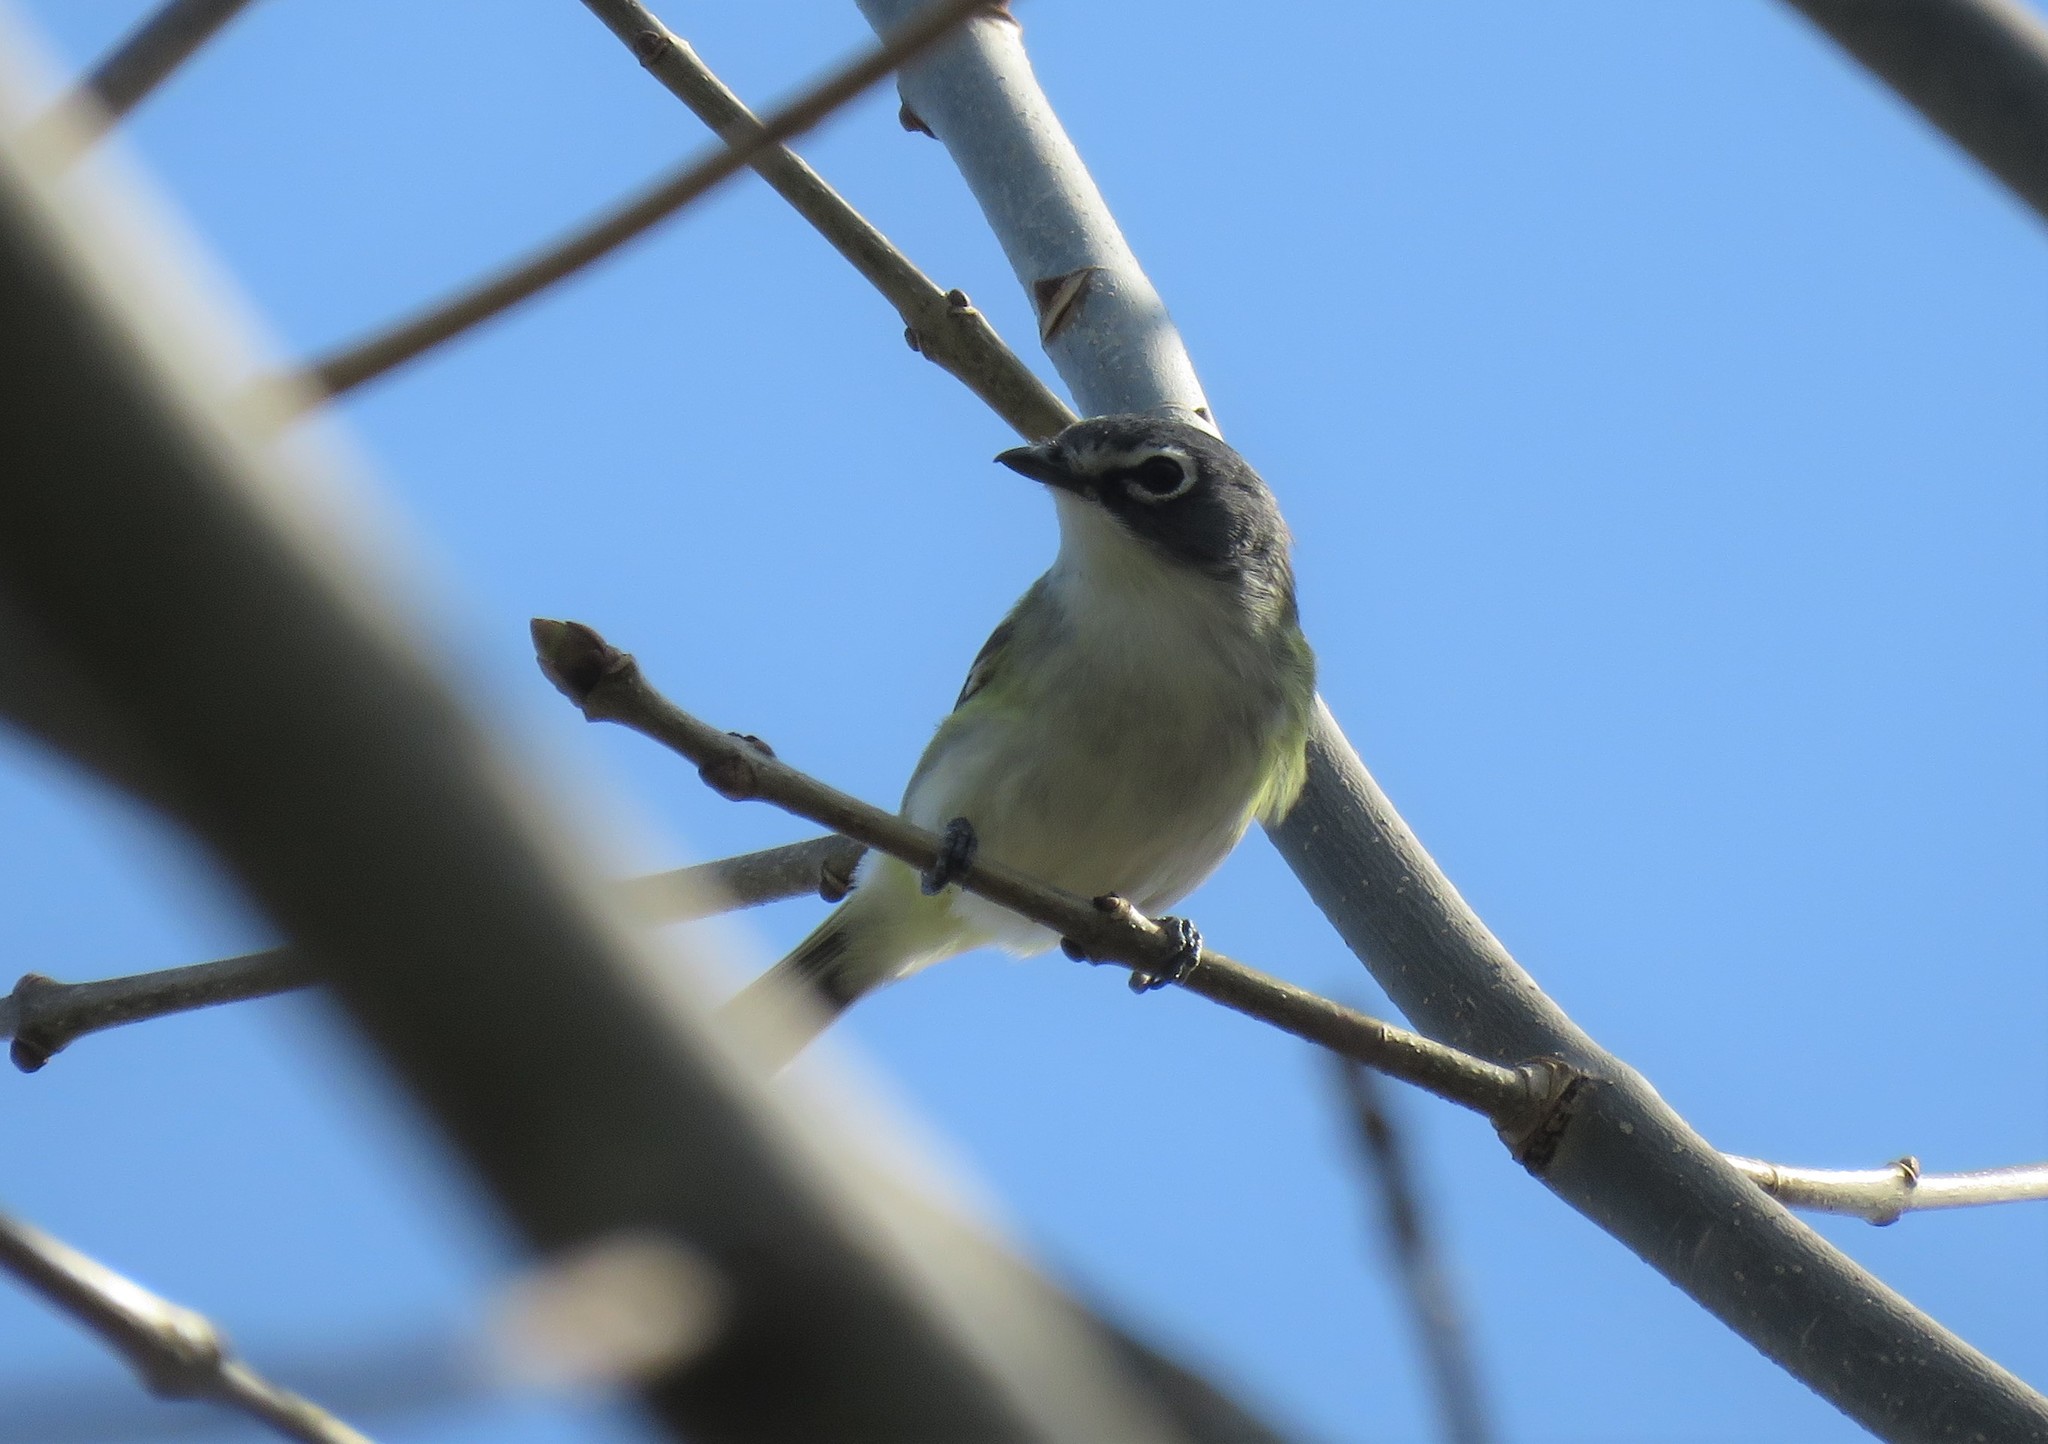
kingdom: Animalia
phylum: Chordata
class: Aves
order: Passeriformes
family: Vireonidae
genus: Vireo
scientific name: Vireo solitarius
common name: Blue-headed vireo
